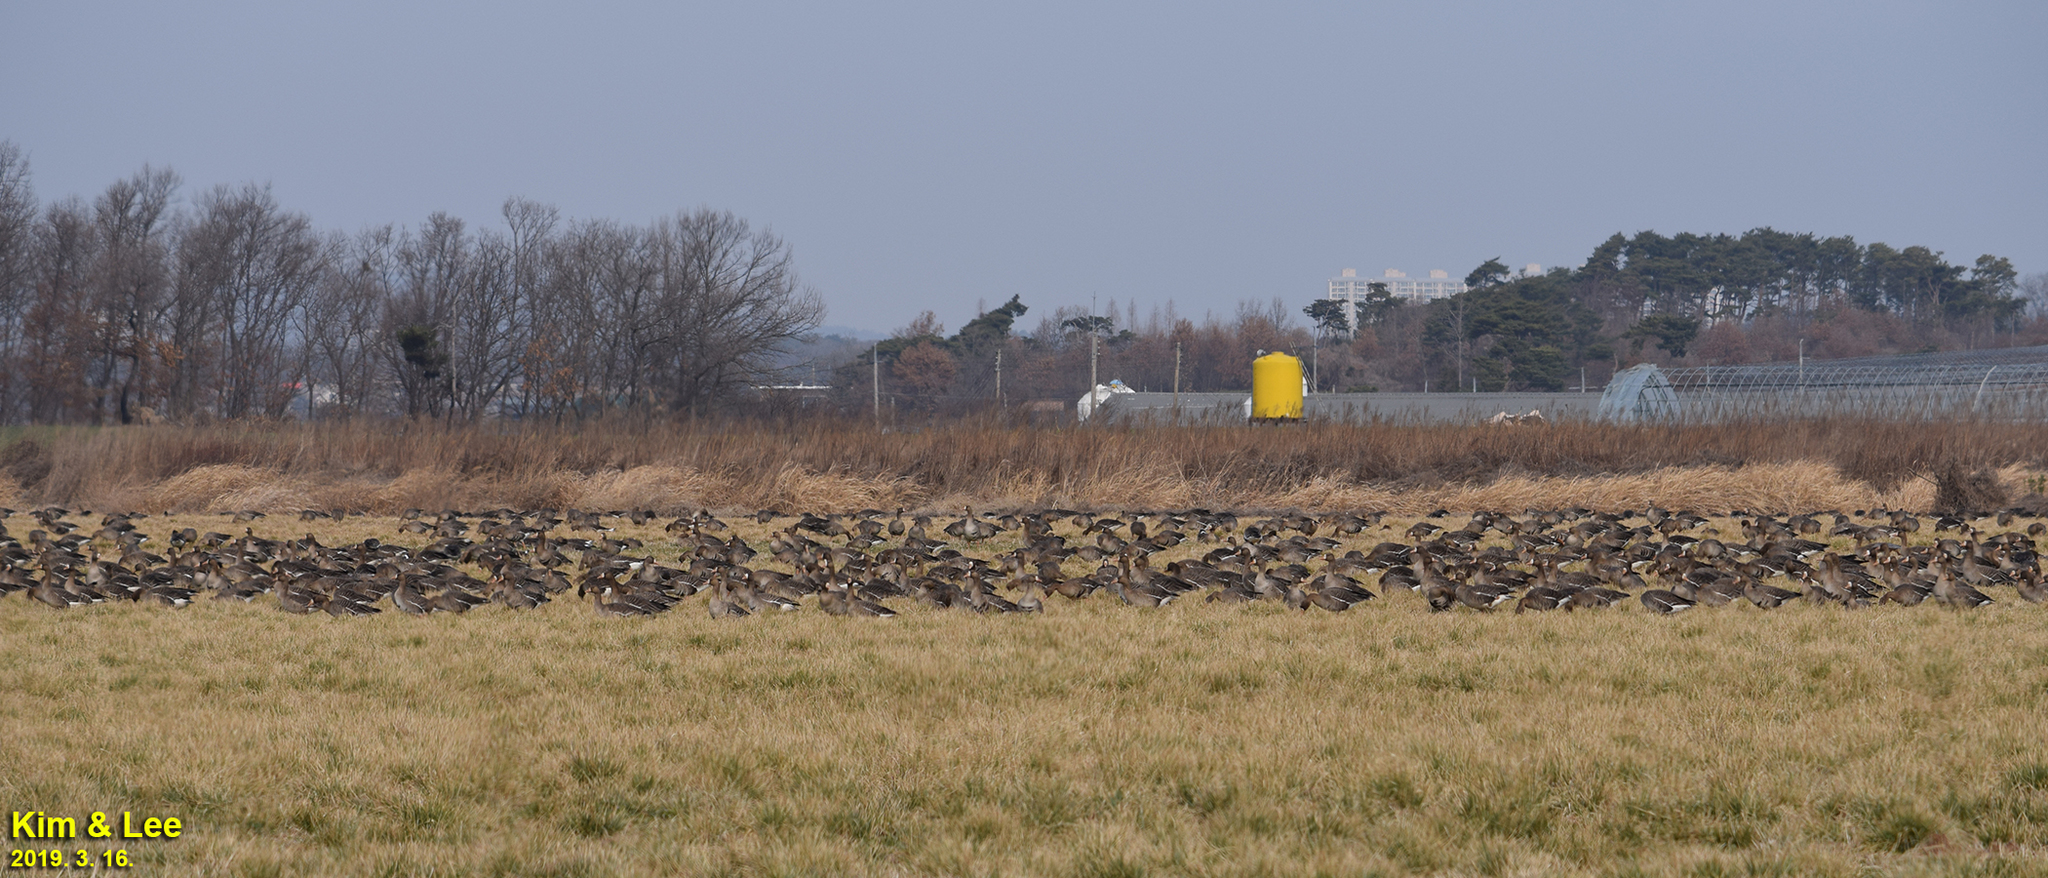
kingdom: Animalia
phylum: Chordata
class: Aves
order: Anseriformes
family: Anatidae
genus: Anser
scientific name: Anser albifrons
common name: Greater white-fronted goose
